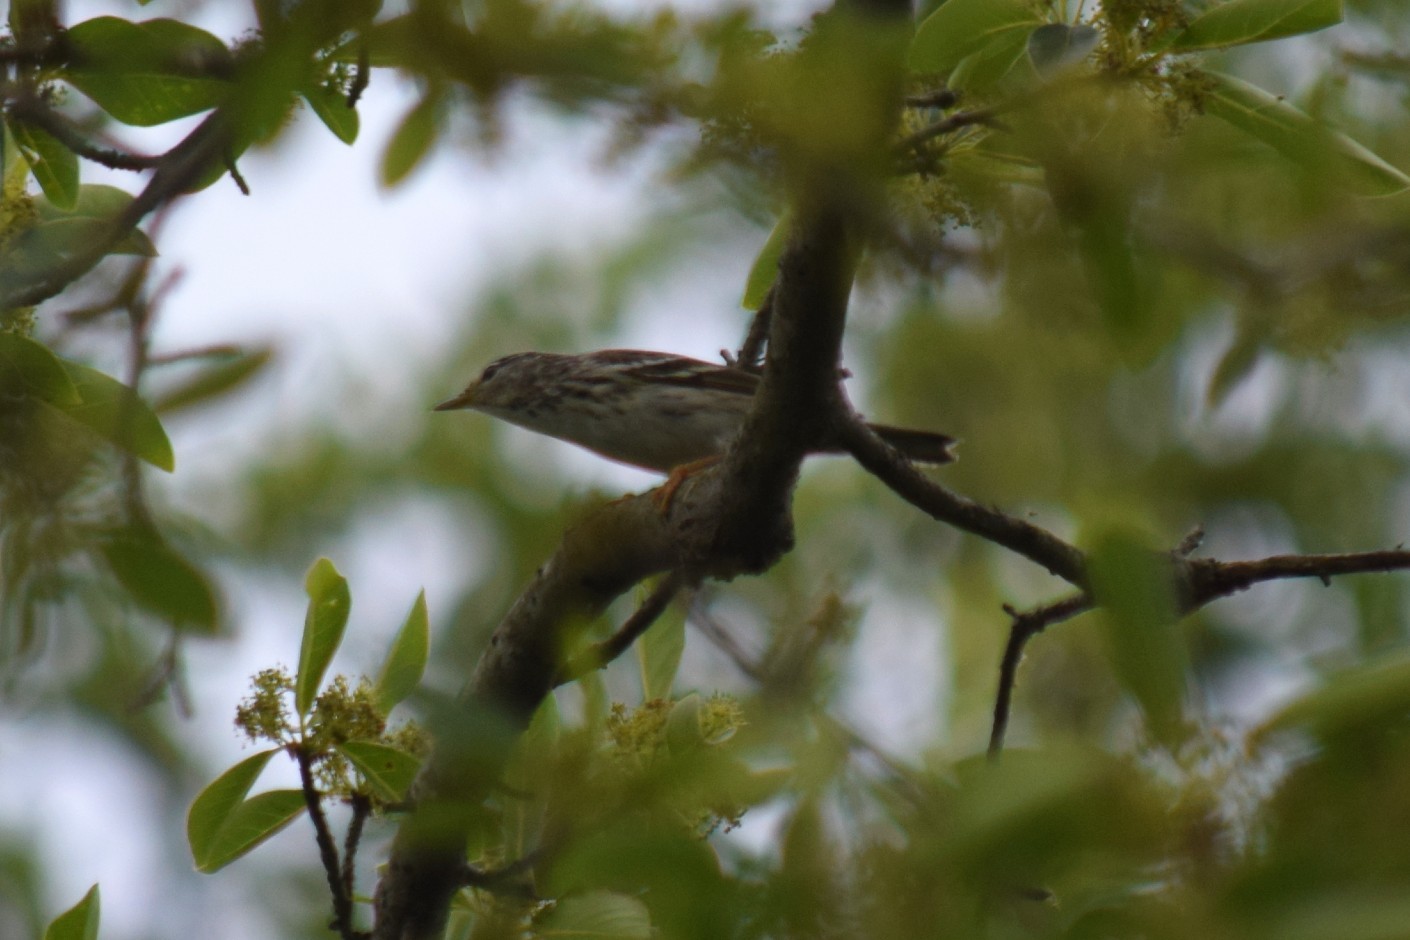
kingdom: Animalia
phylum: Chordata
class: Aves
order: Passeriformes
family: Parulidae
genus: Setophaga
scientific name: Setophaga striata
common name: Blackpoll warbler
